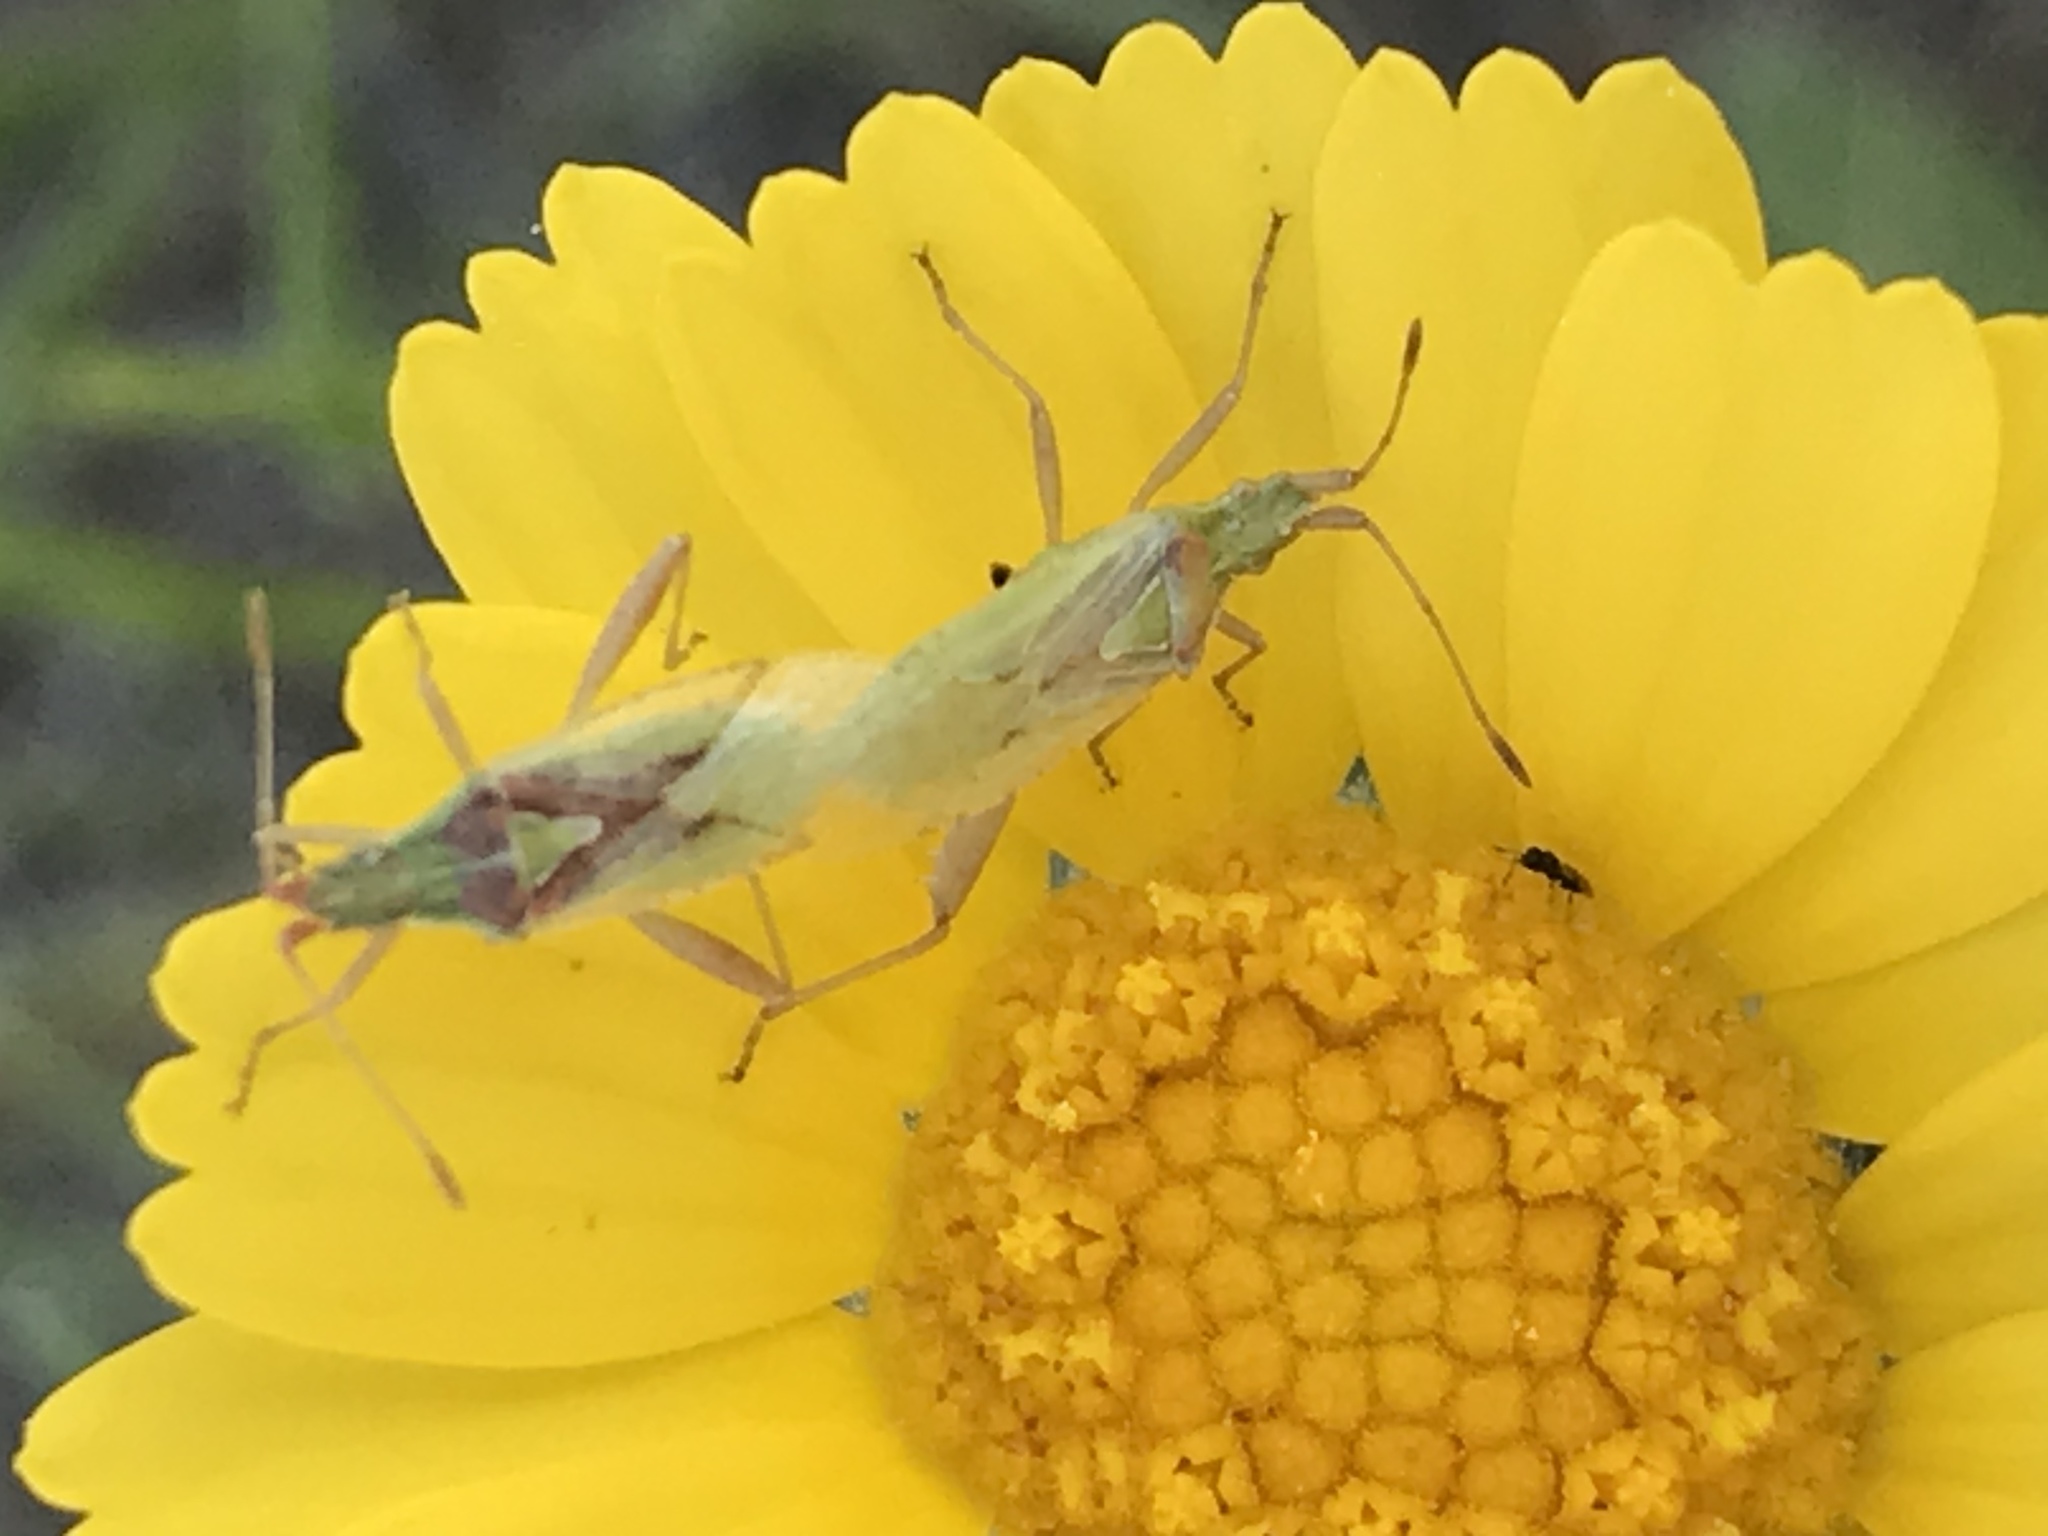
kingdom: Animalia
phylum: Arthropoda
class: Insecta
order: Hemiptera
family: Rhopalidae
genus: Harmostes
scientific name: Harmostes reflexulus
